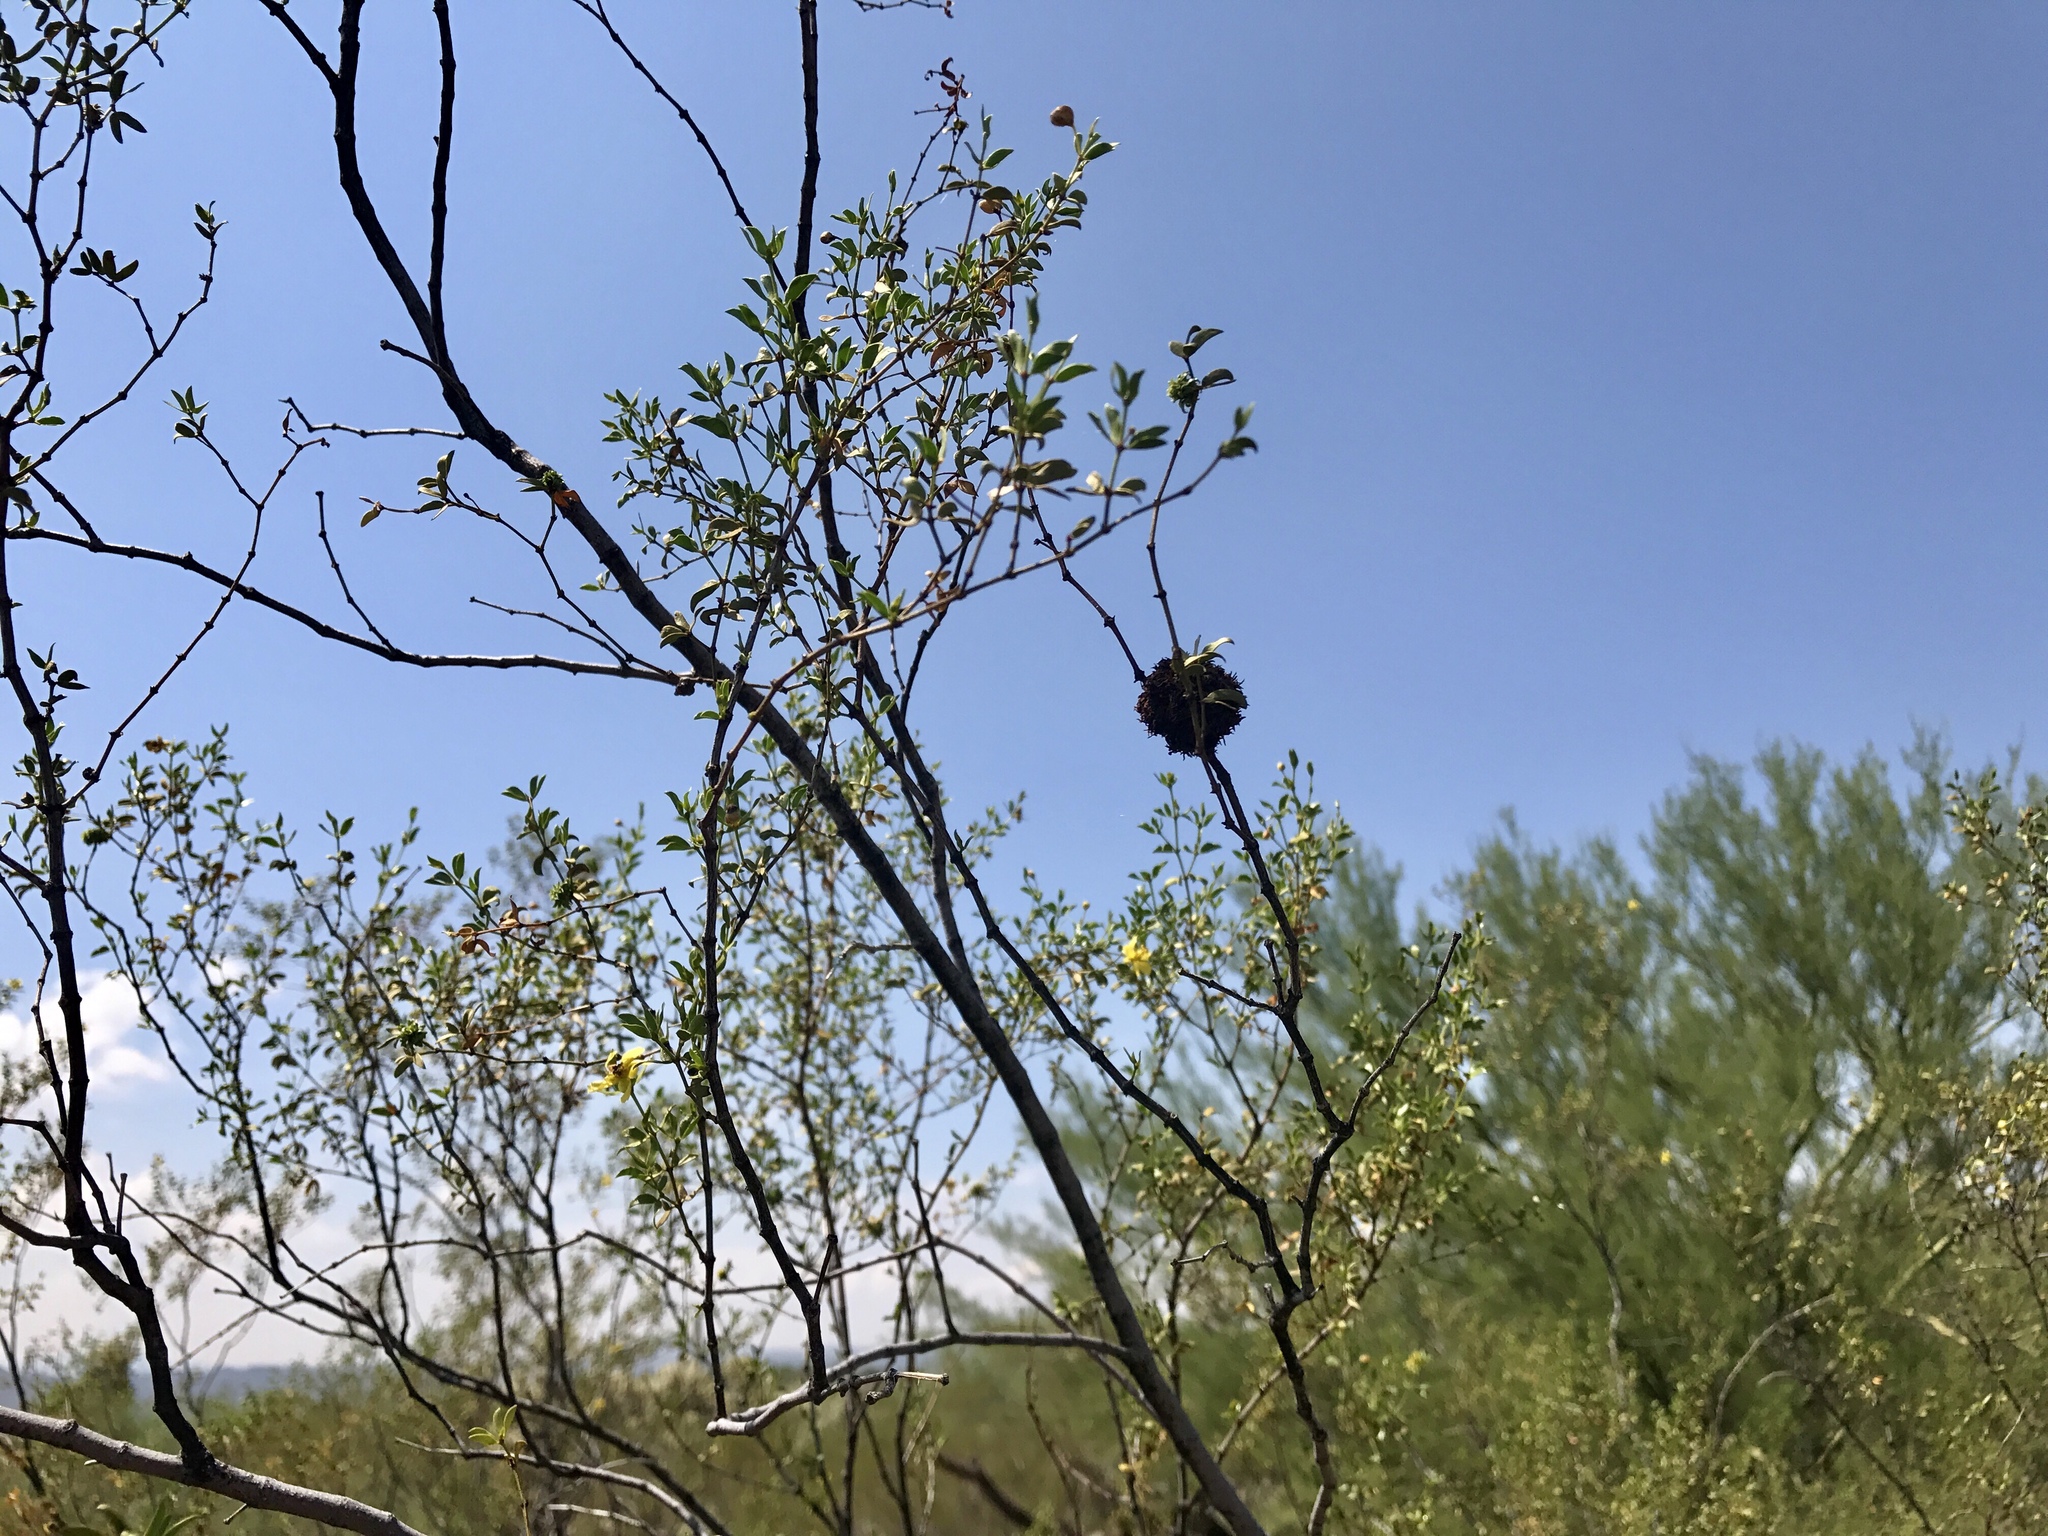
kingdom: Animalia
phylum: Arthropoda
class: Insecta
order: Diptera
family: Cecidomyiidae
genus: Asphondylia
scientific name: Asphondylia auripila
